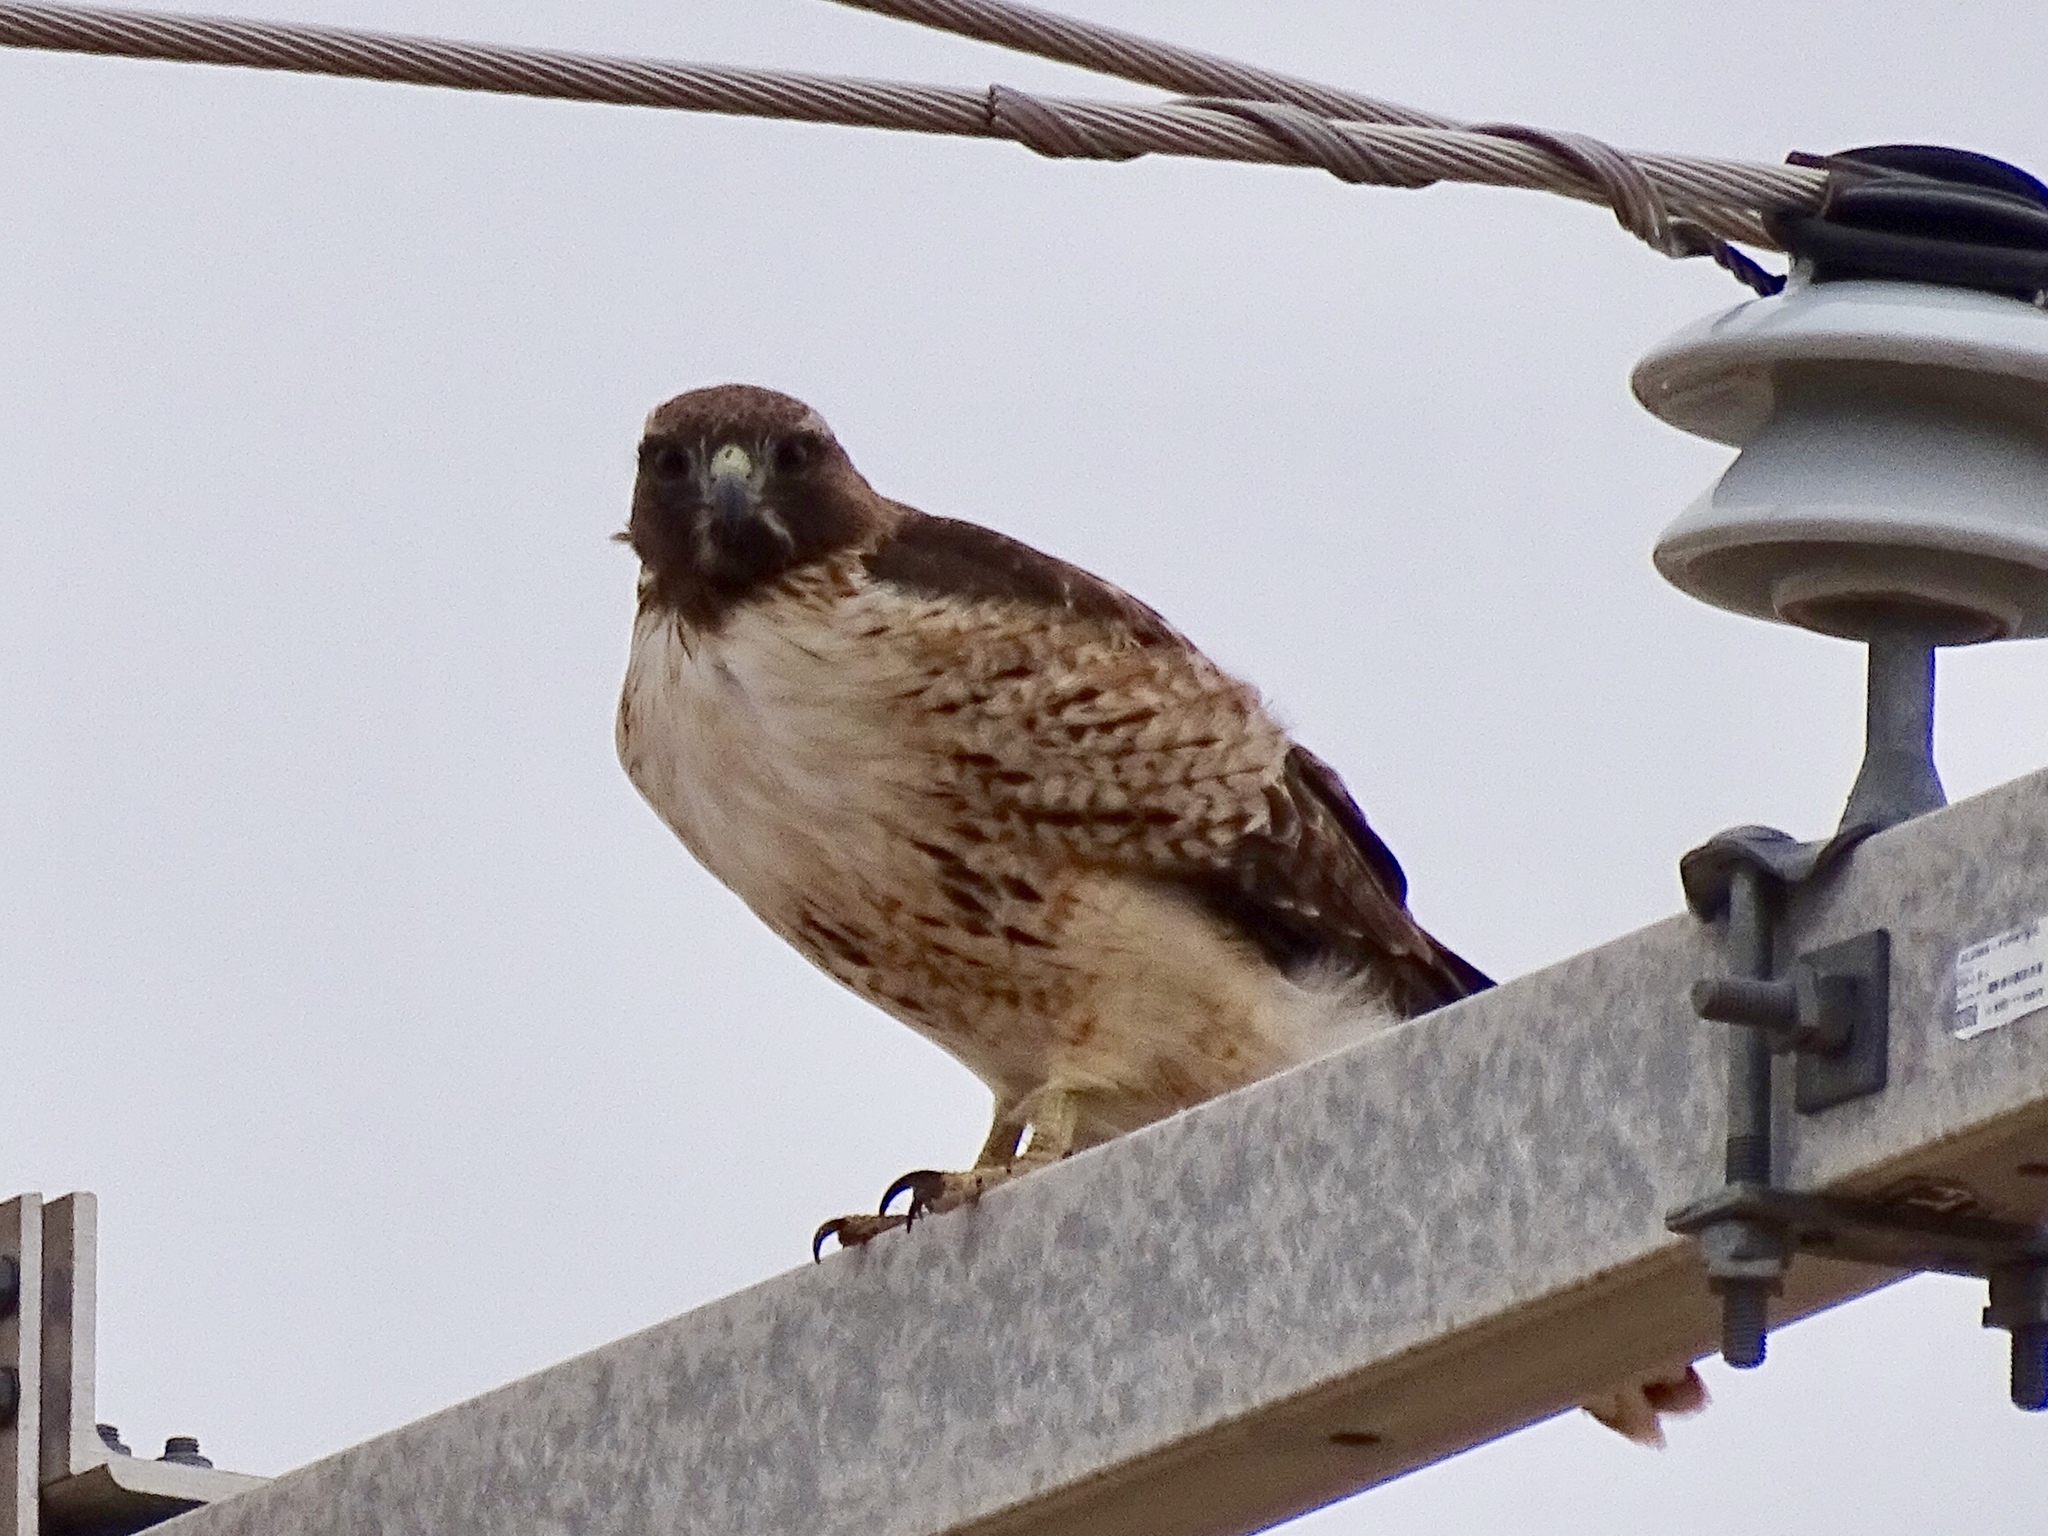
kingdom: Animalia
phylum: Chordata
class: Aves
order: Accipitriformes
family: Accipitridae
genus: Buteo
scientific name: Buteo jamaicensis
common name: Red-tailed hawk
